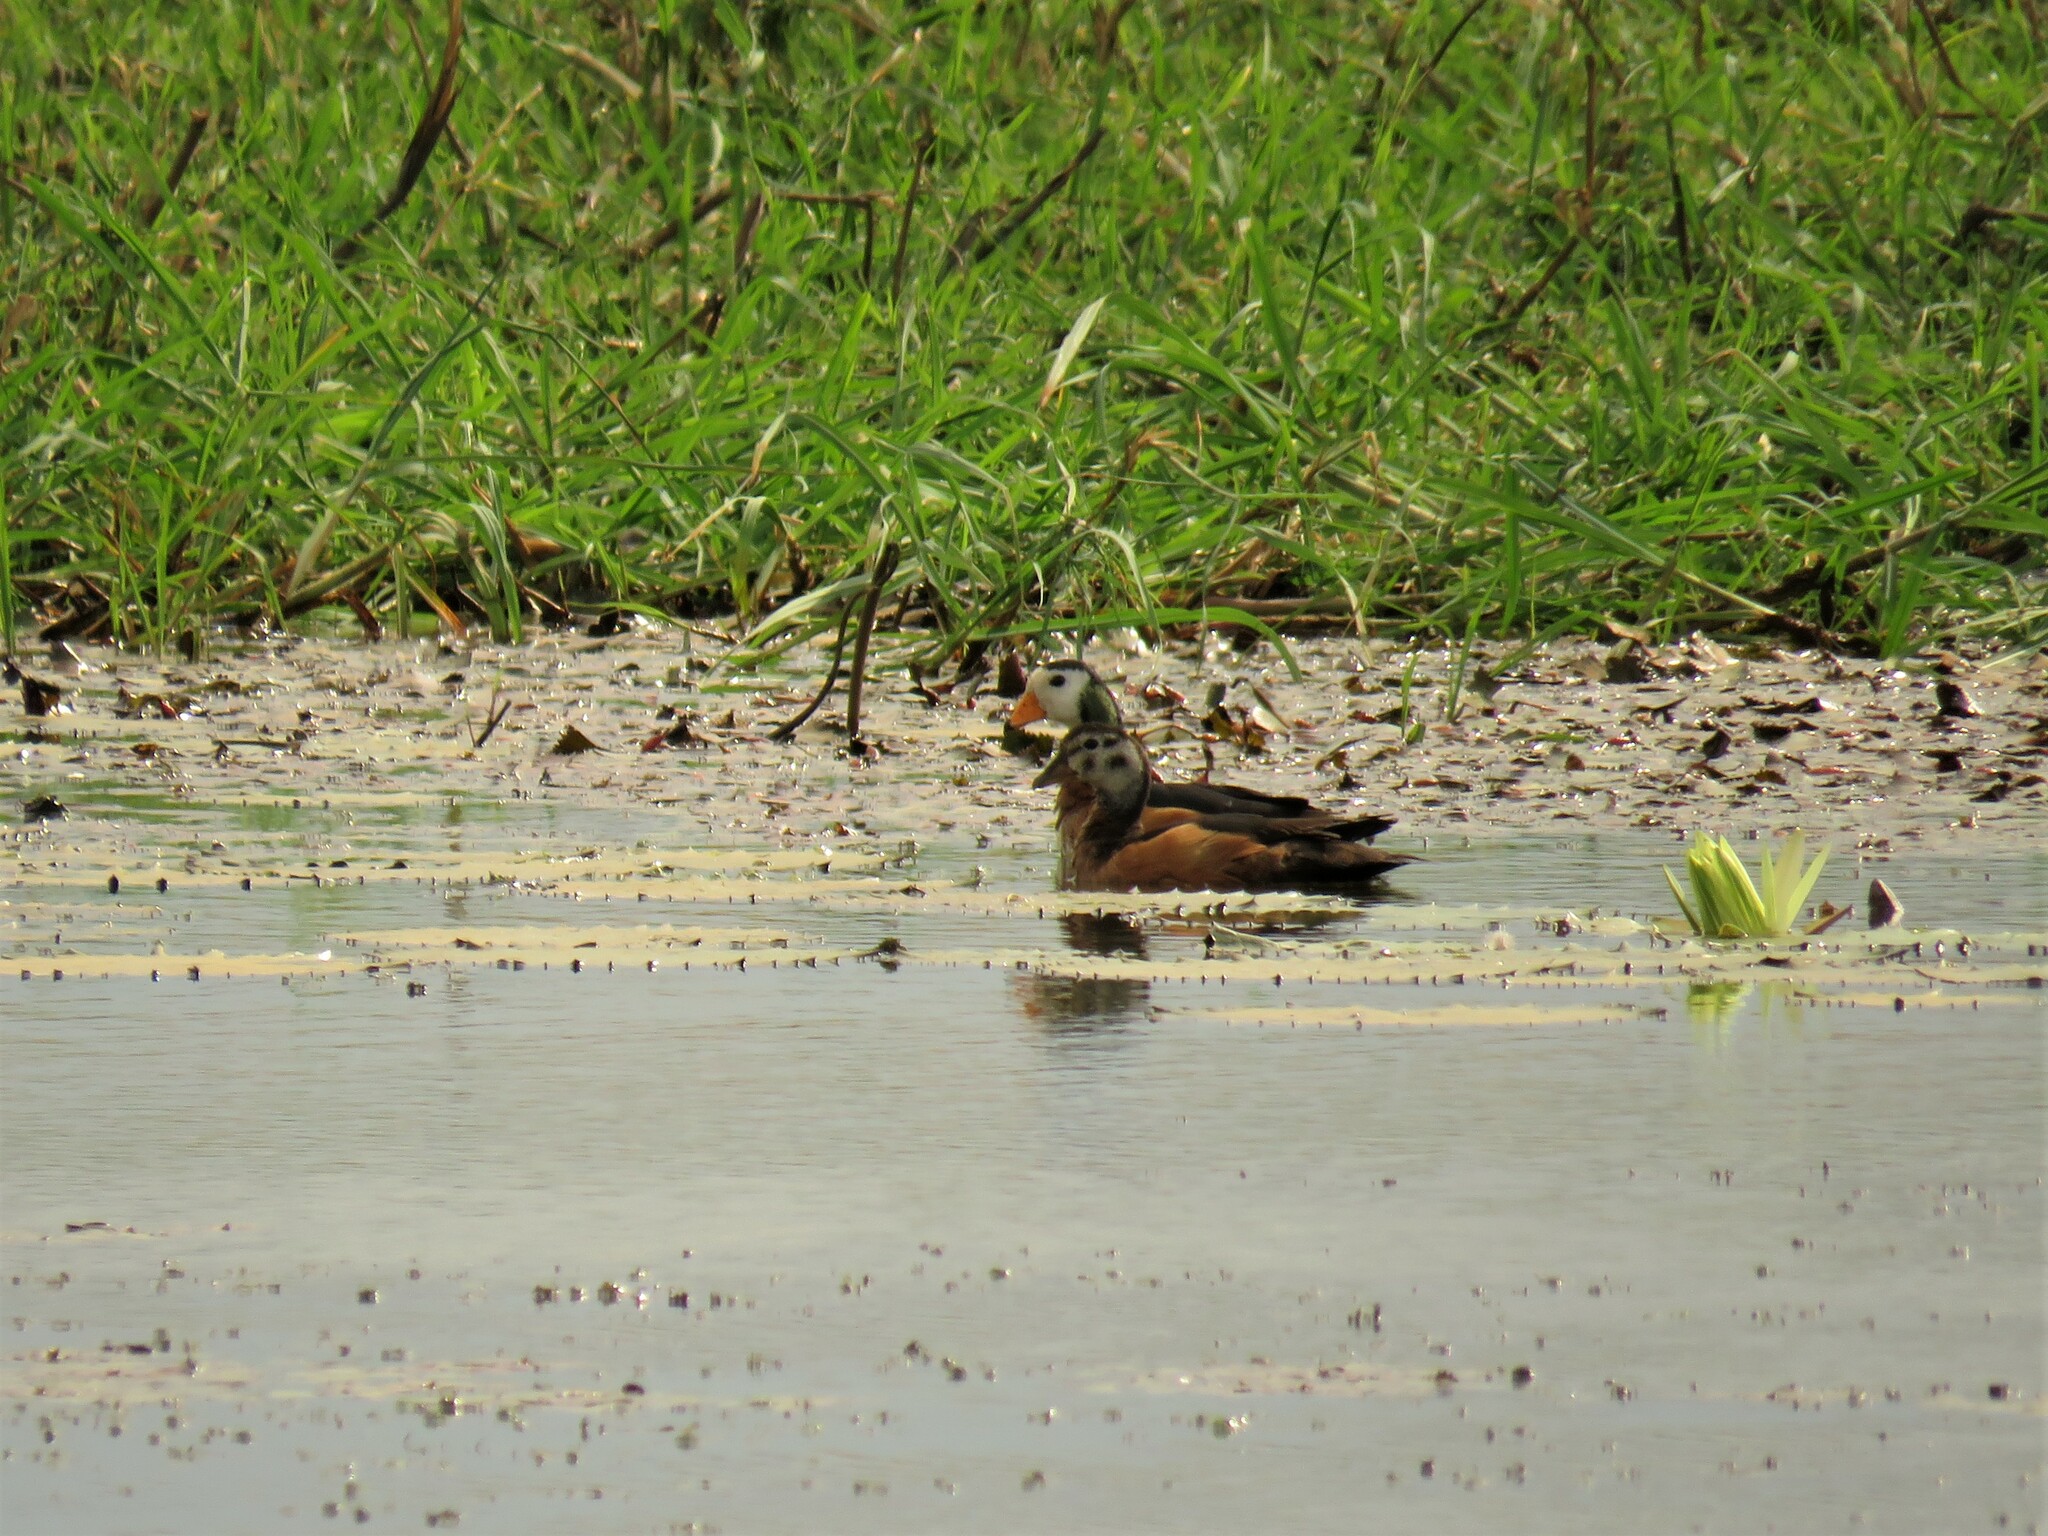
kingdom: Animalia
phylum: Chordata
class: Aves
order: Anseriformes
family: Anatidae
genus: Nettapus
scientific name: Nettapus auritus
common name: African pygmy-goose
